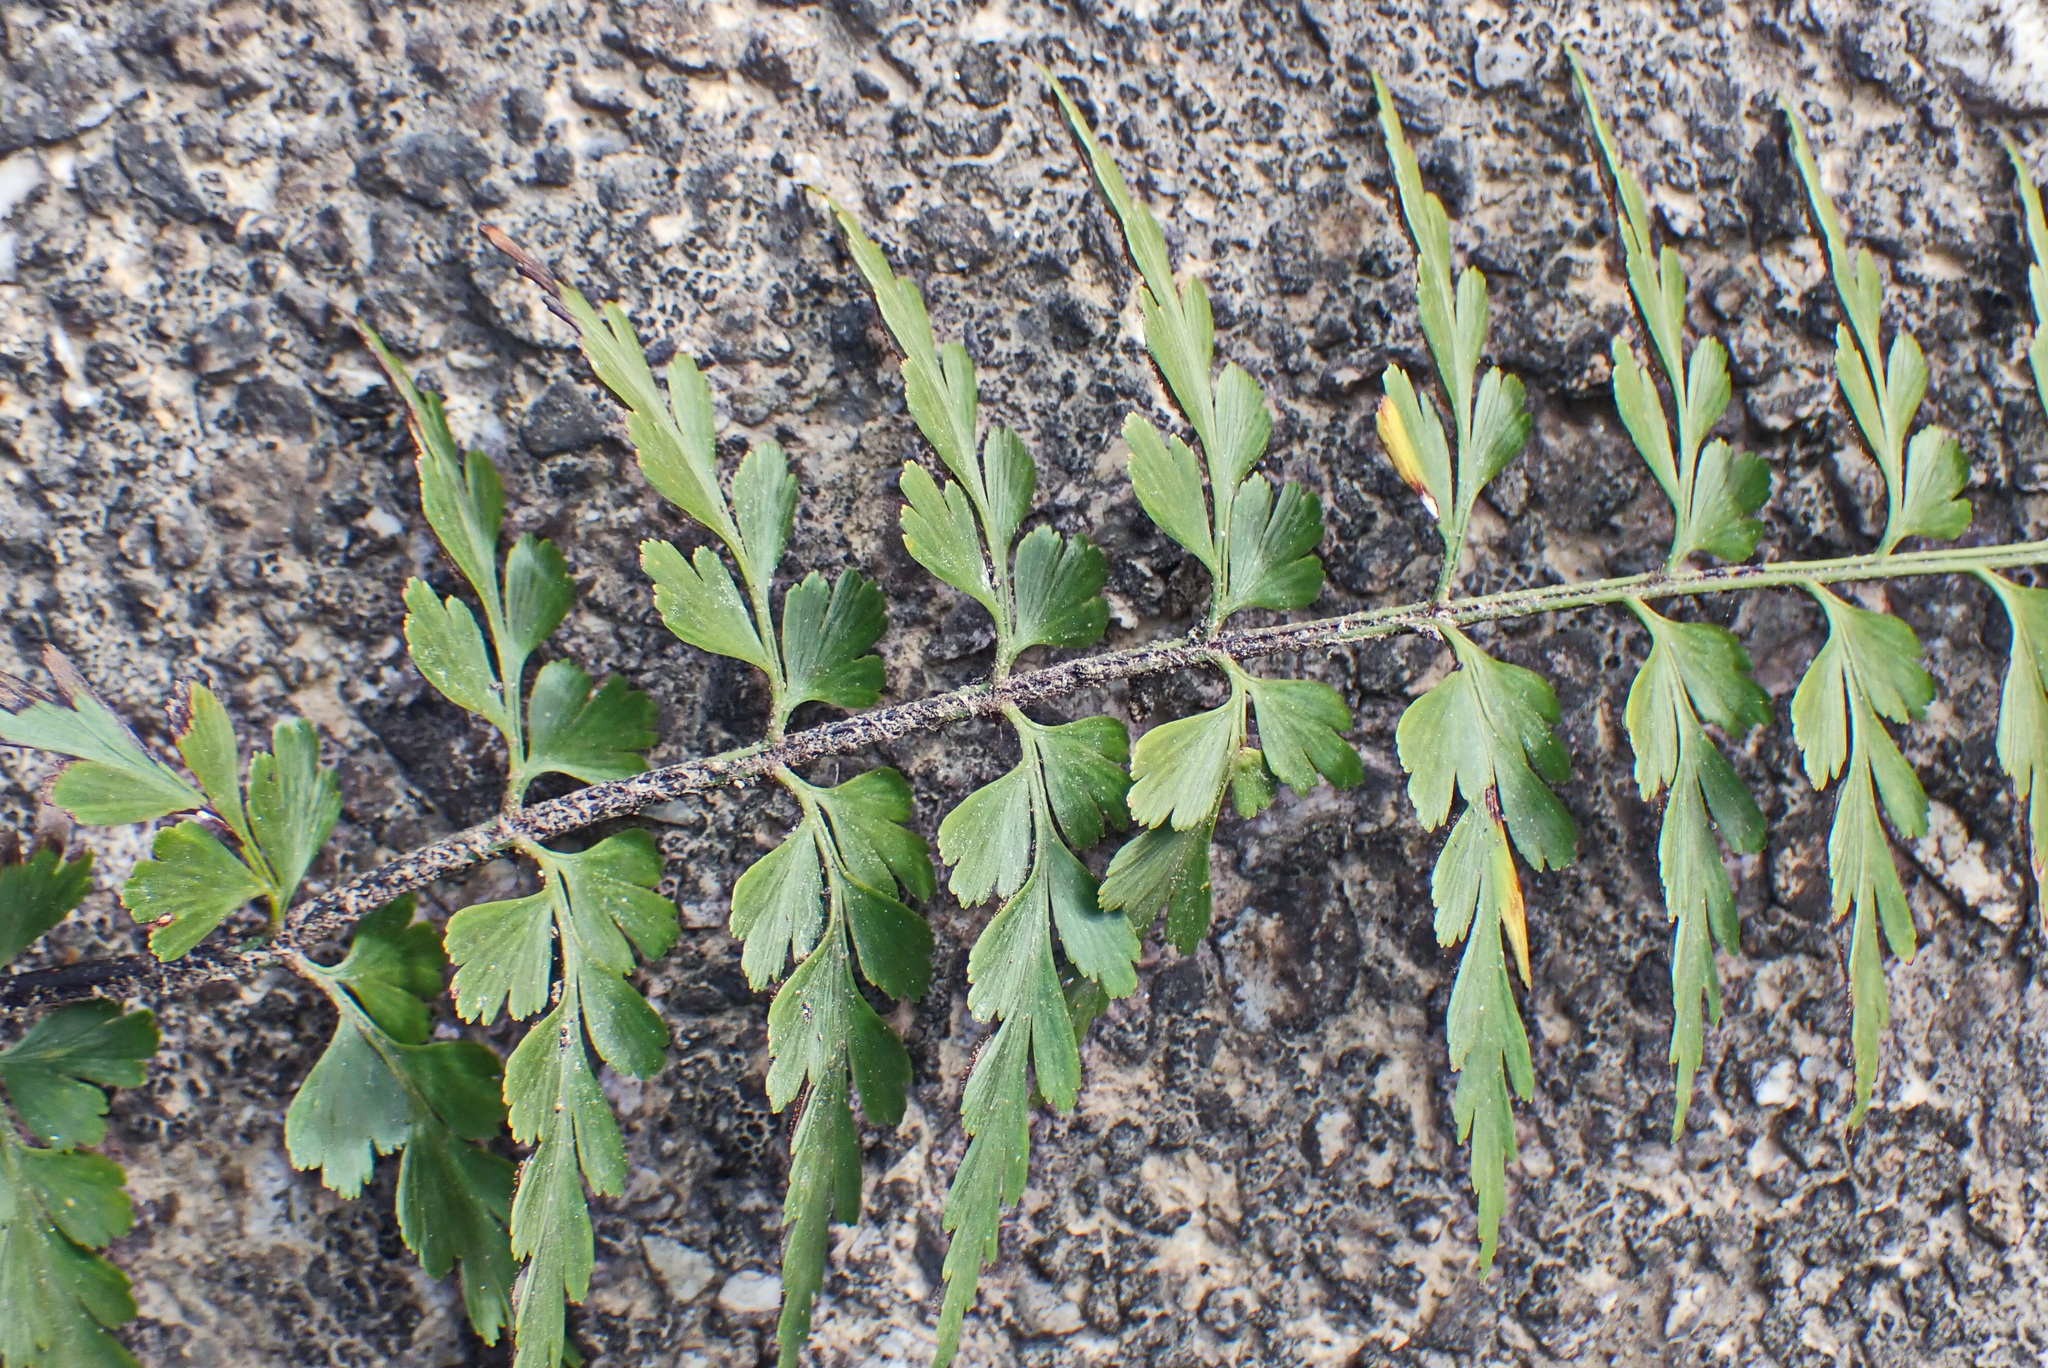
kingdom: Plantae
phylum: Tracheophyta
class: Polypodiopsida
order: Polypodiales
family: Aspleniaceae
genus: Asplenium
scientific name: Asplenium aethiopicum
